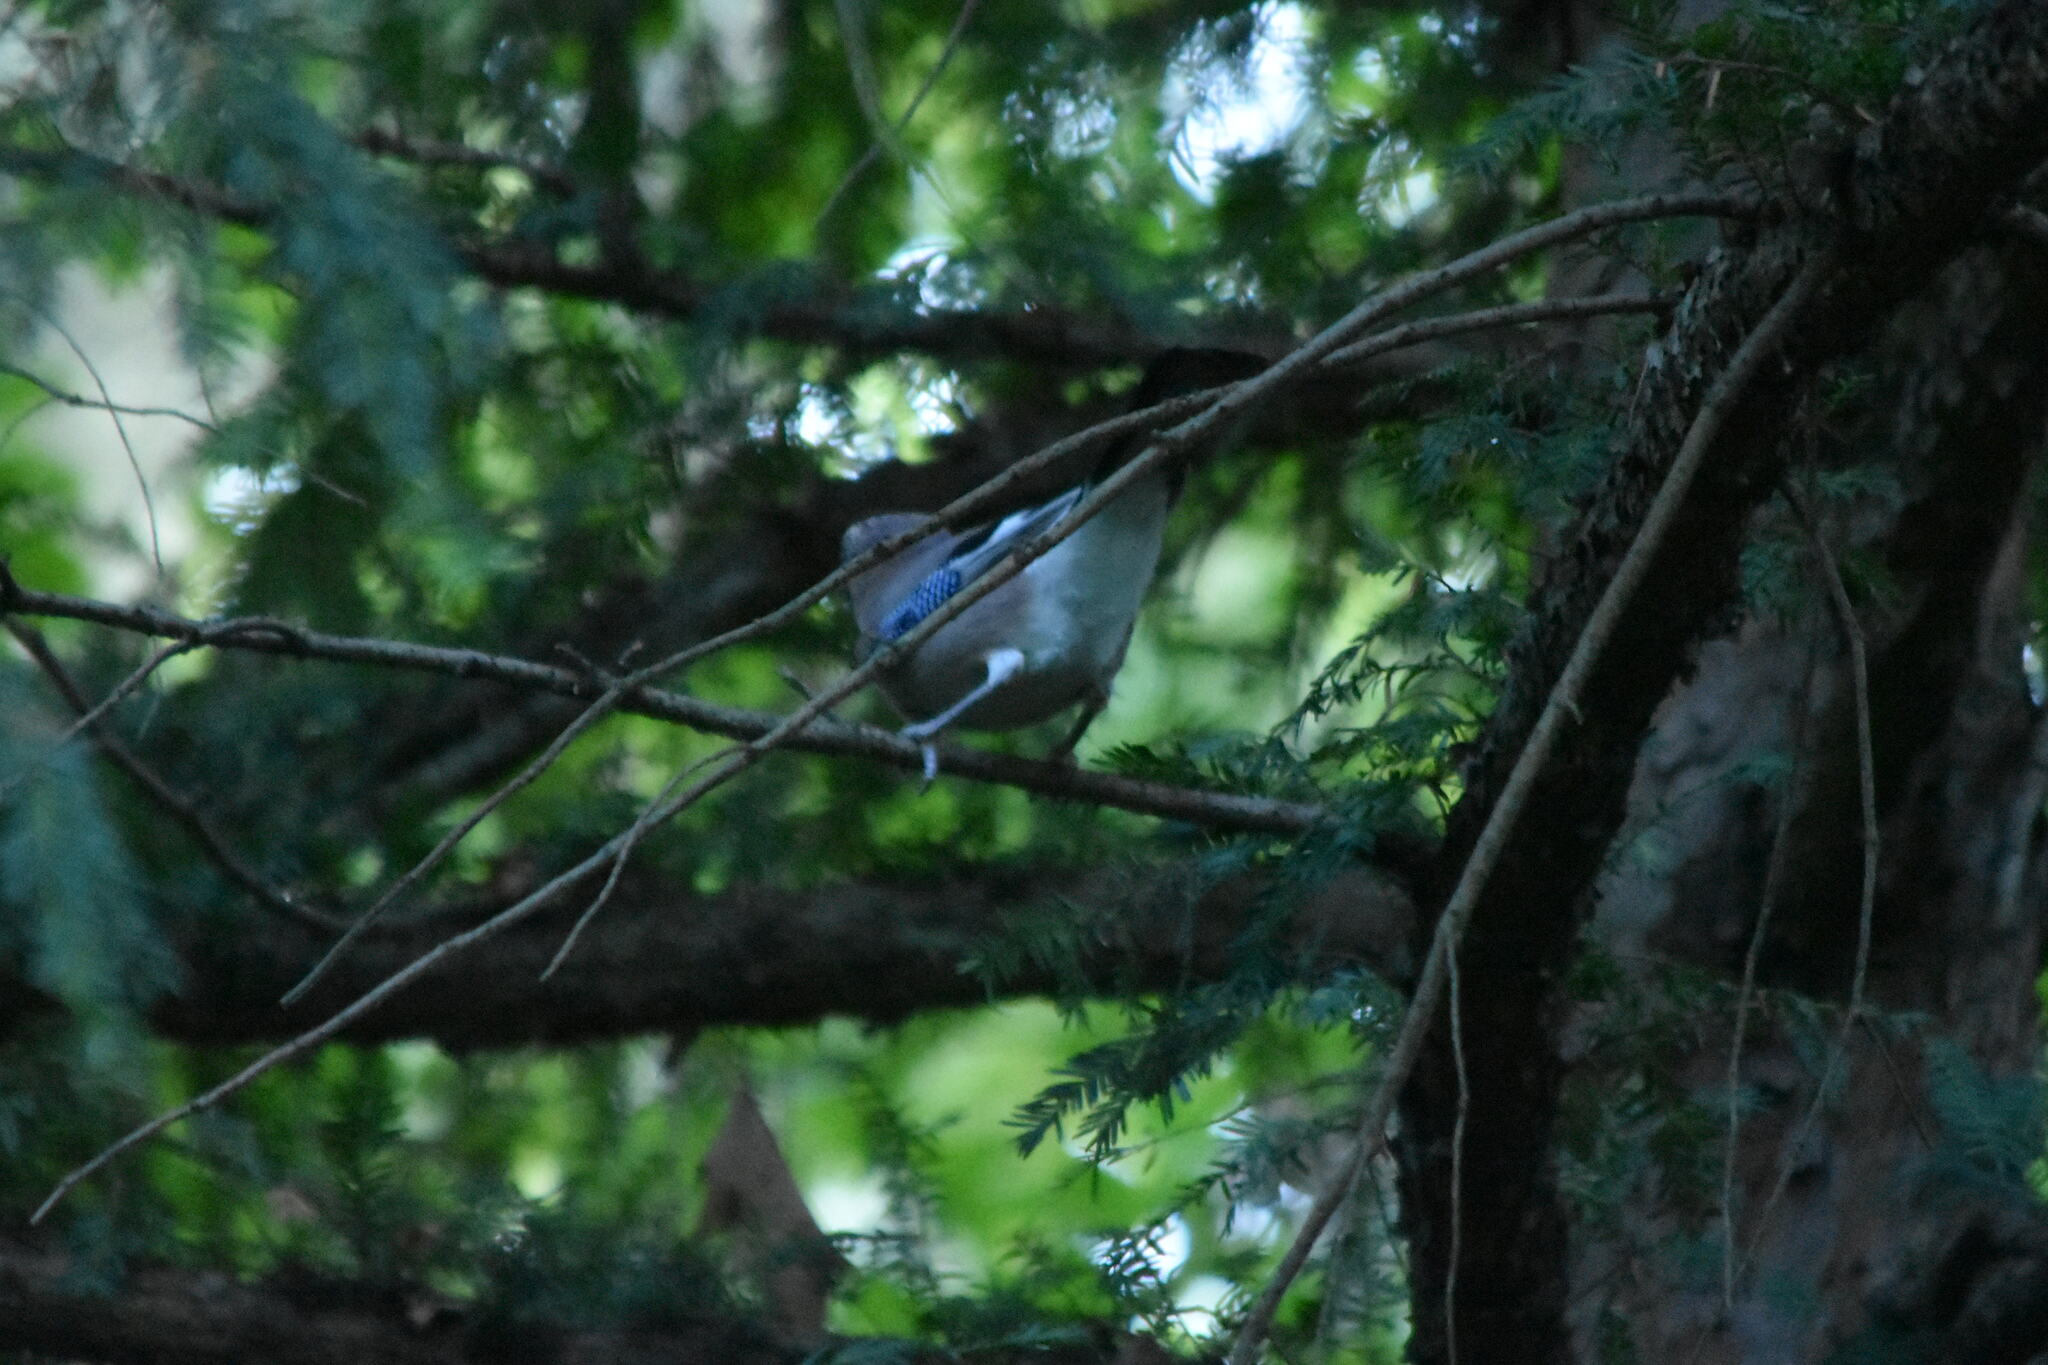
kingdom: Animalia
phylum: Chordata
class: Aves
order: Passeriformes
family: Corvidae
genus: Garrulus
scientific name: Garrulus glandarius
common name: Eurasian jay
